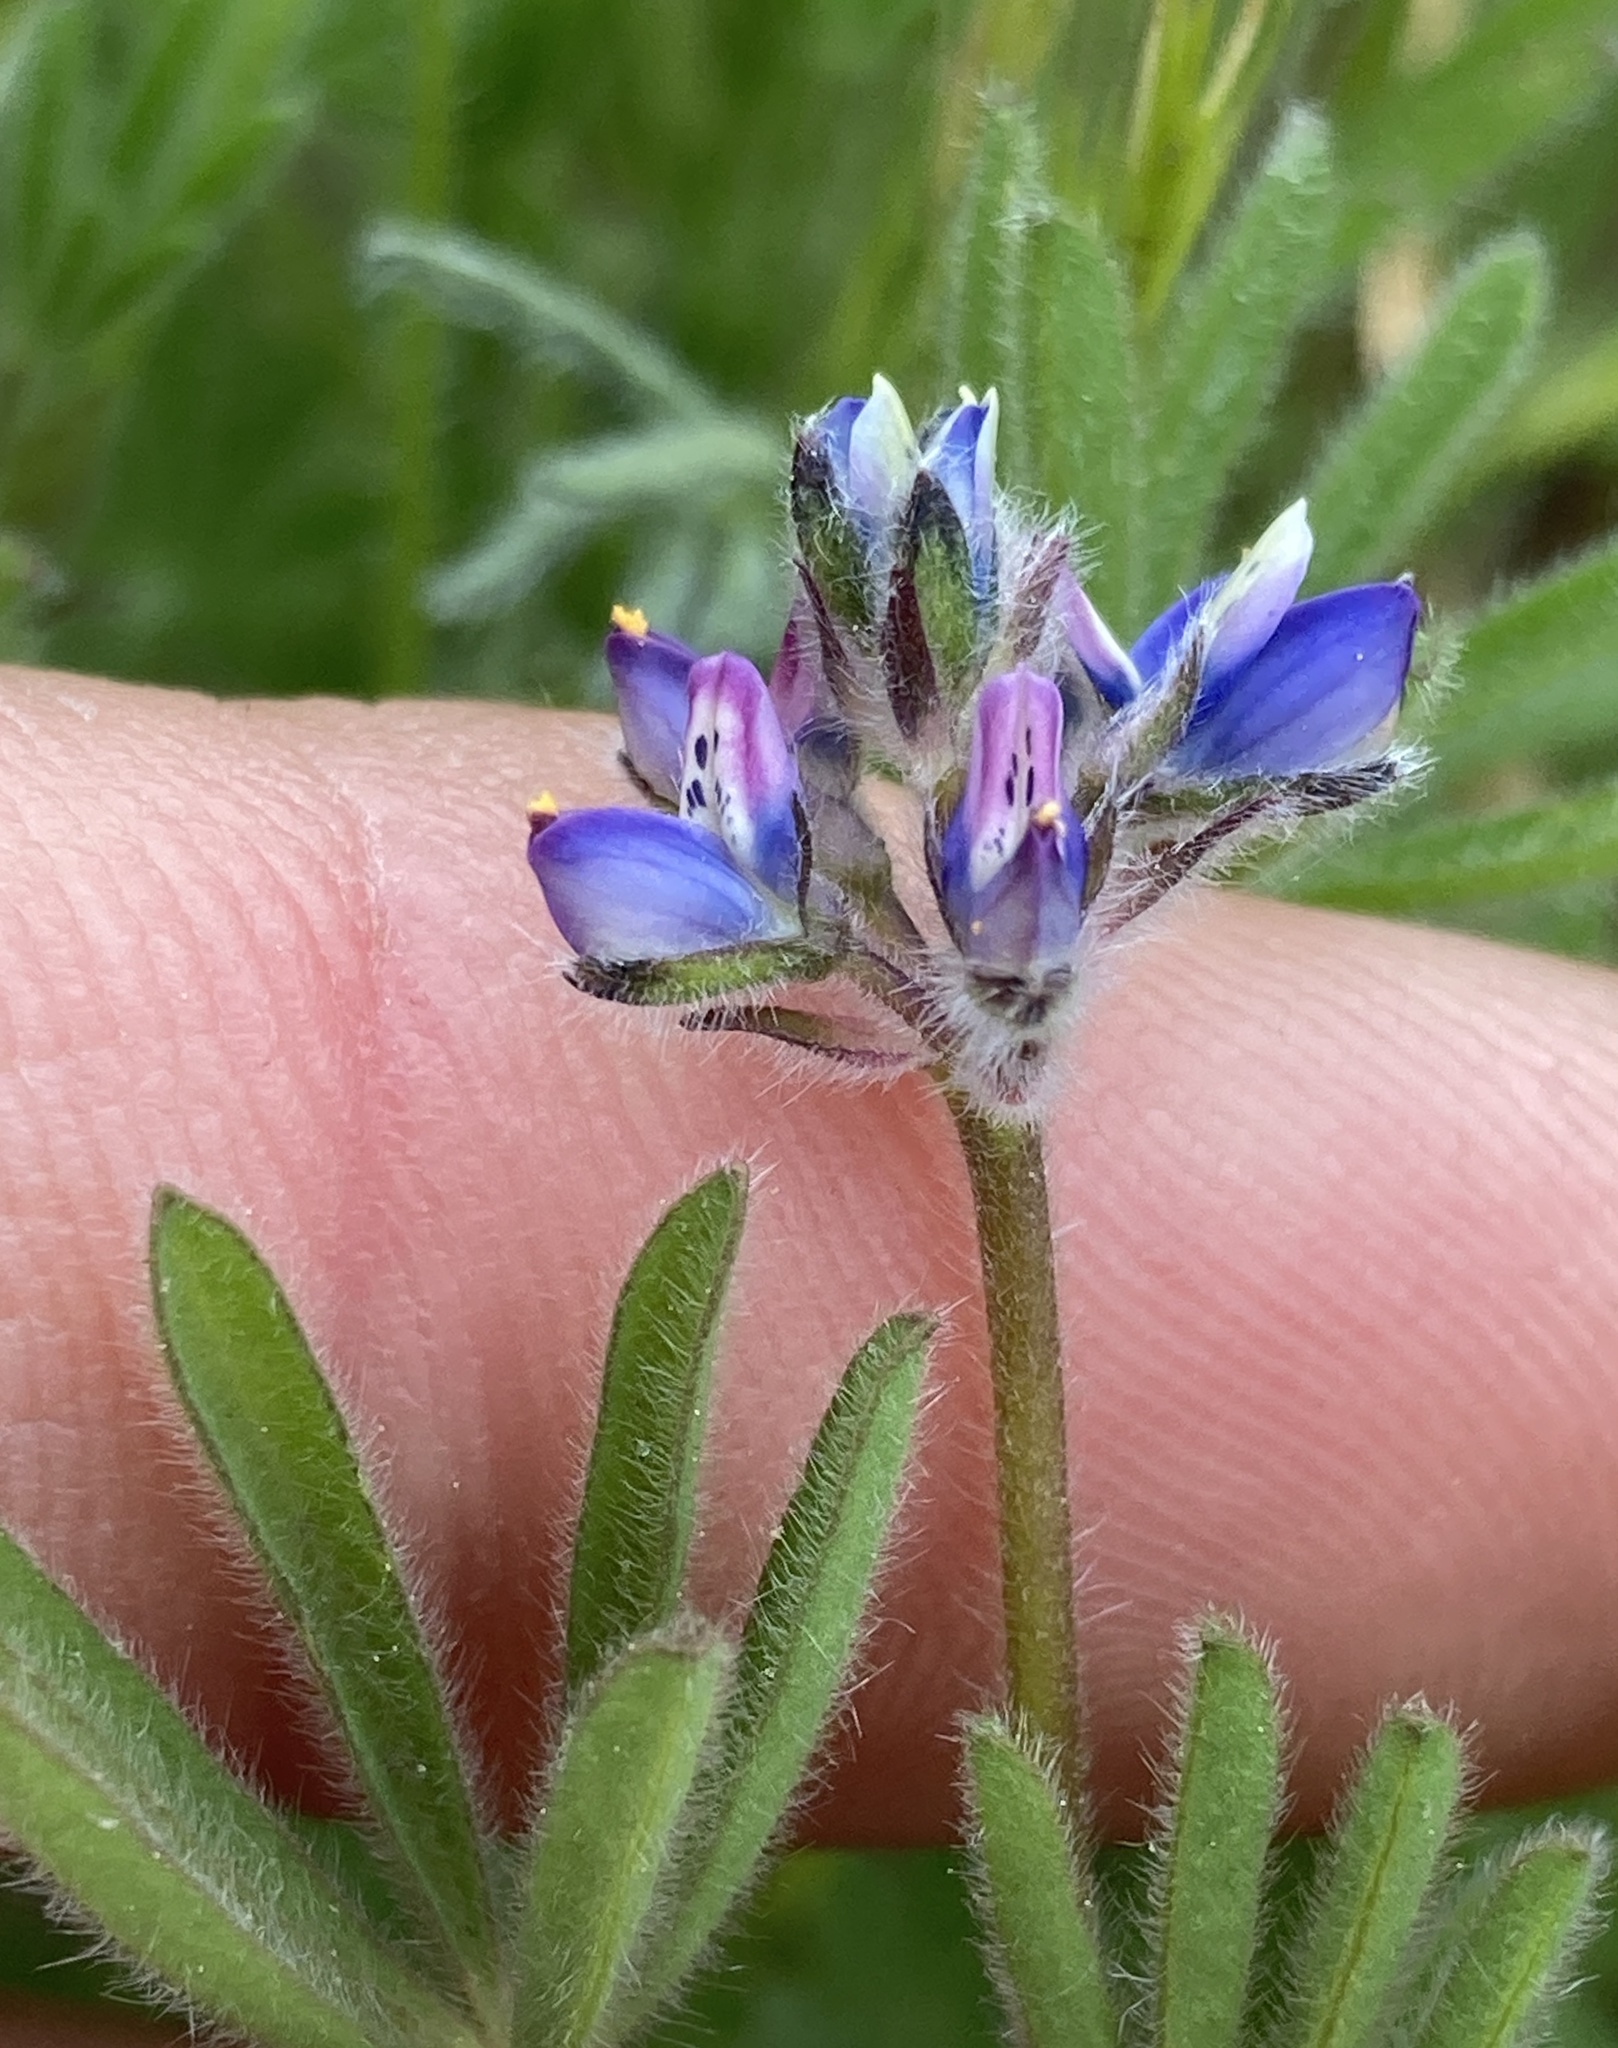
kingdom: Plantae
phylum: Tracheophyta
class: Magnoliopsida
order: Fabales
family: Fabaceae
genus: Lupinus
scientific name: Lupinus bicolor
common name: Miniature lupine
